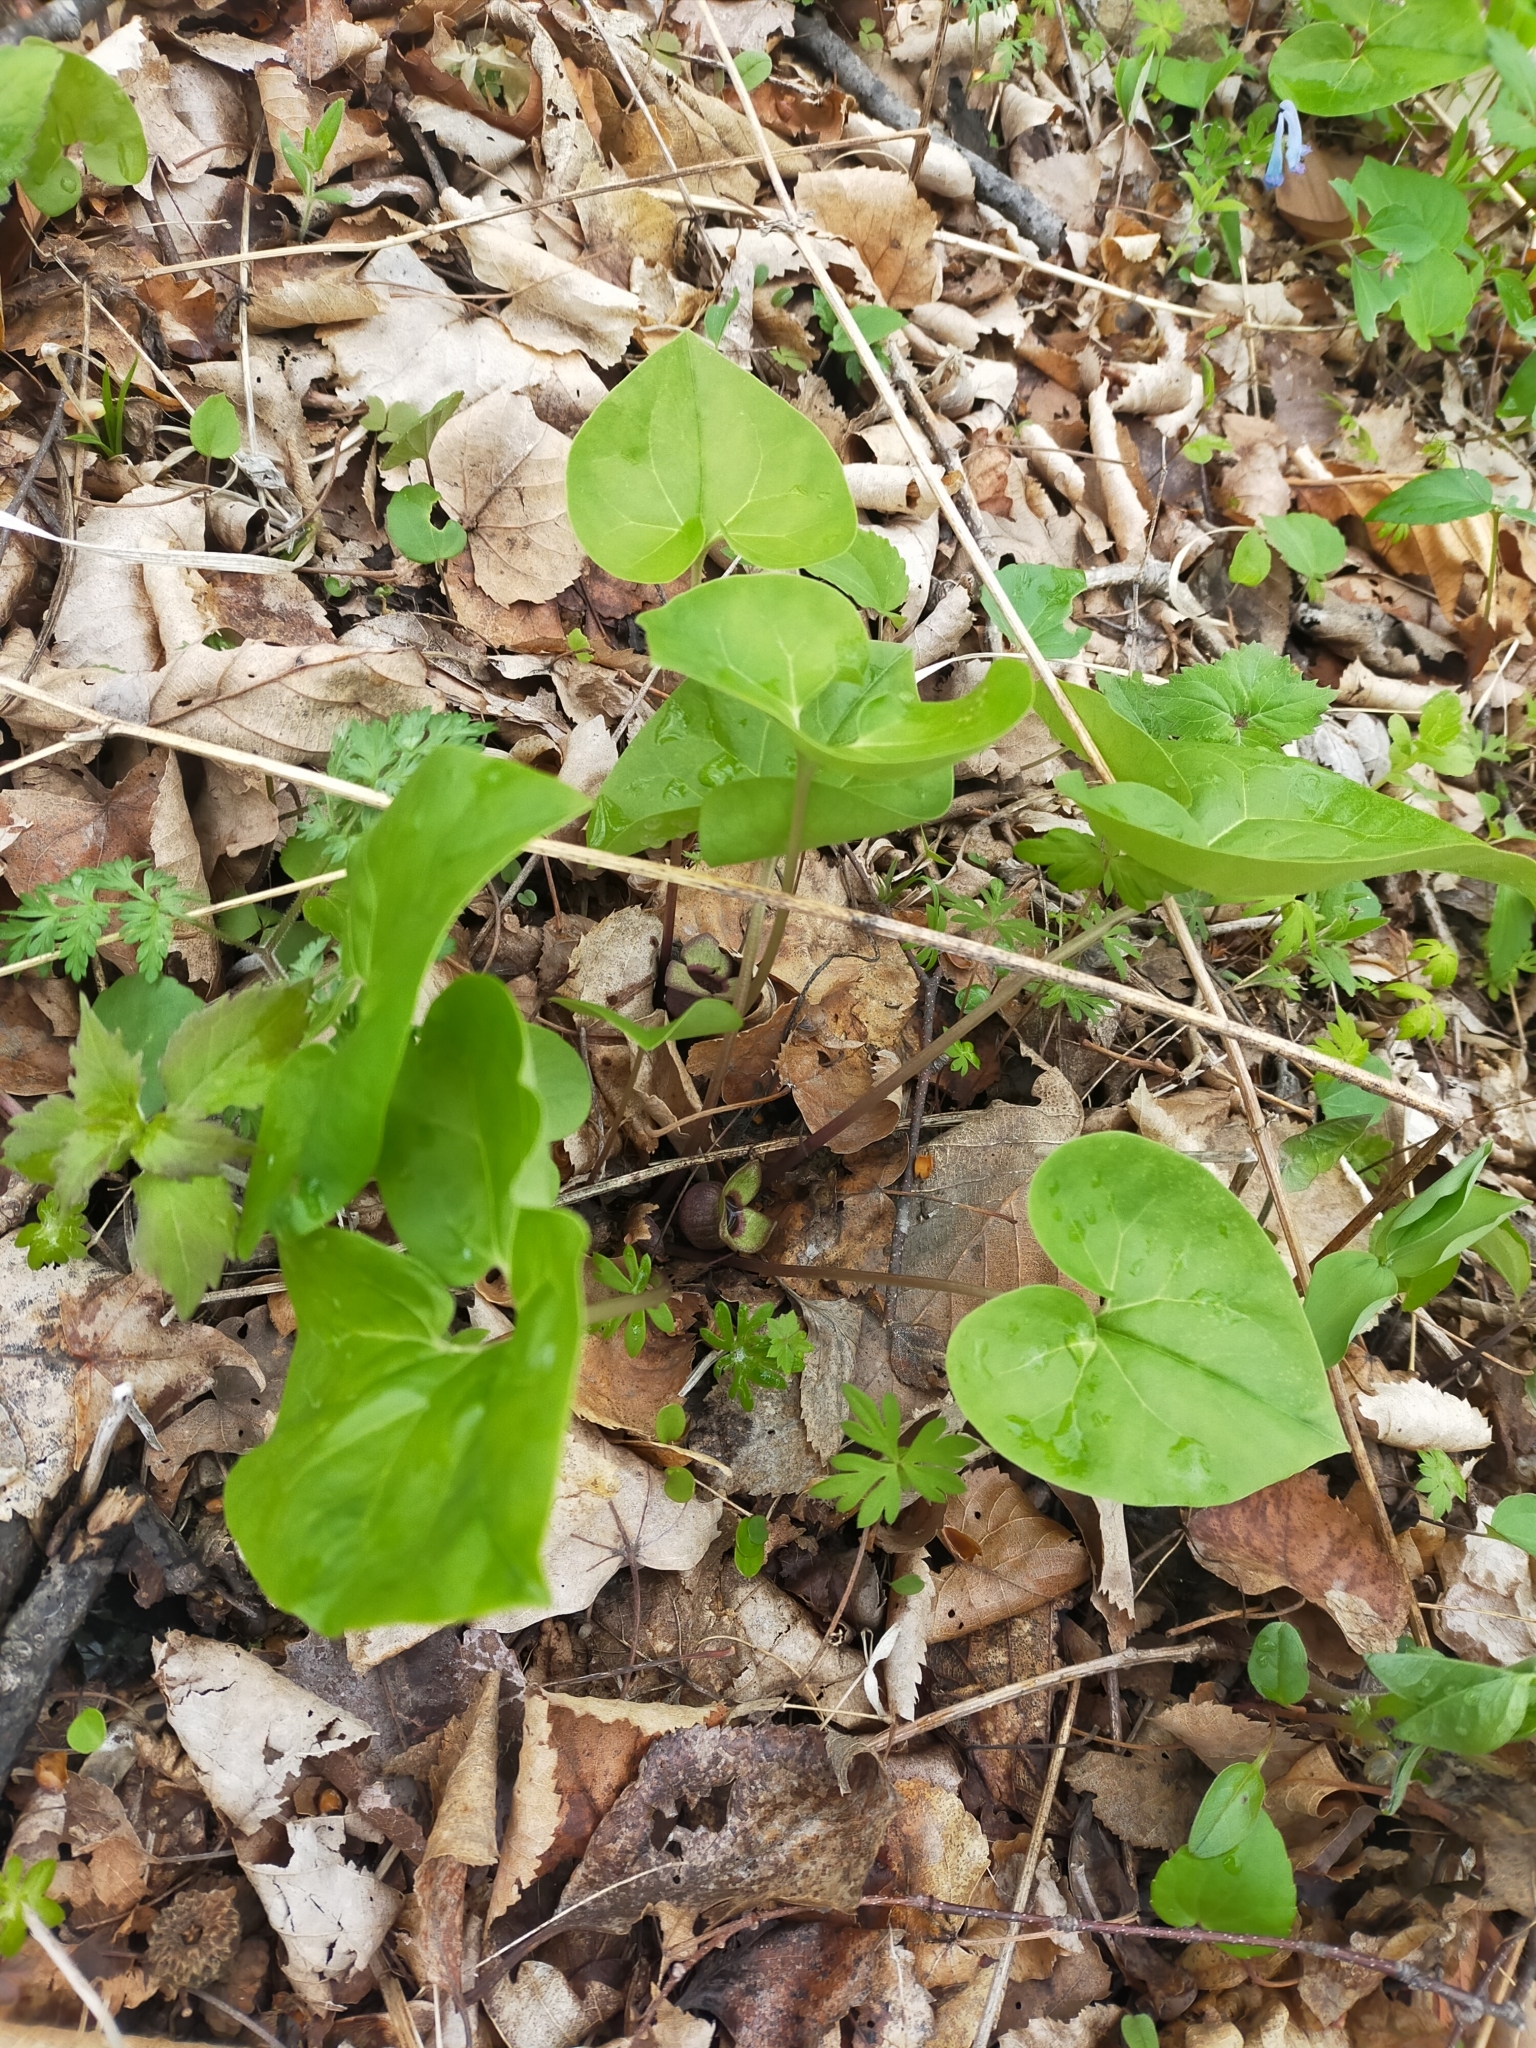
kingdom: Plantae
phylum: Tracheophyta
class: Magnoliopsida
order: Piperales
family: Aristolochiaceae
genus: Asarum
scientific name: Asarum sieboldii
